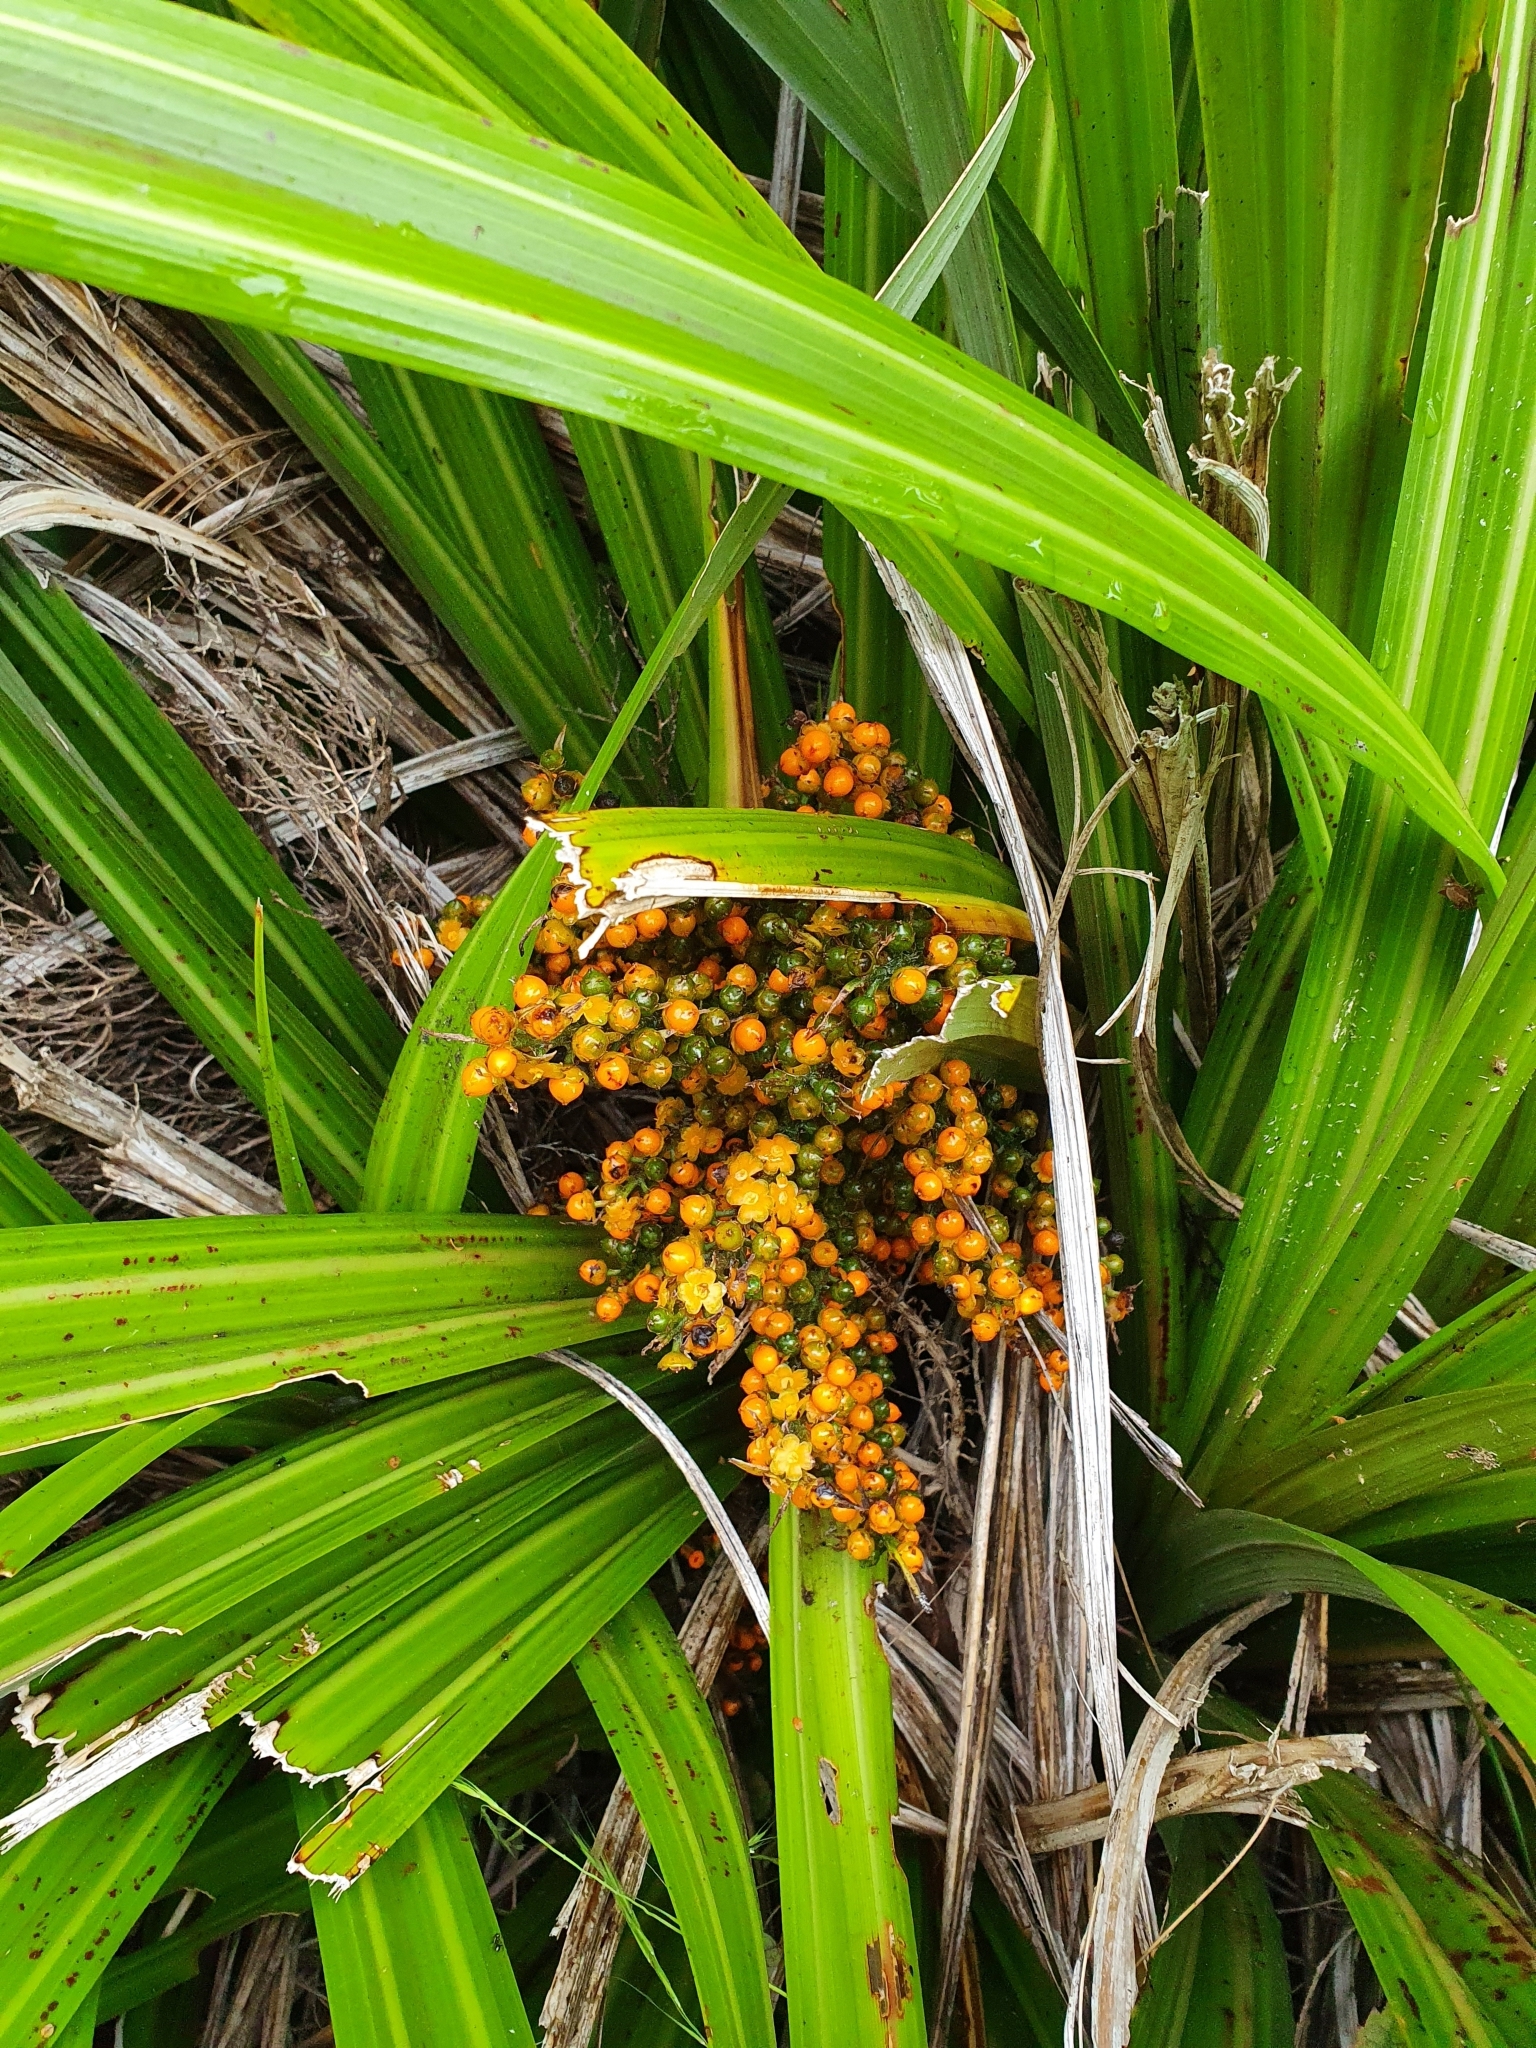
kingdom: Plantae
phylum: Tracheophyta
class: Liliopsida
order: Asparagales
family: Asteliaceae
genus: Astelia
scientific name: Astelia fragrans
